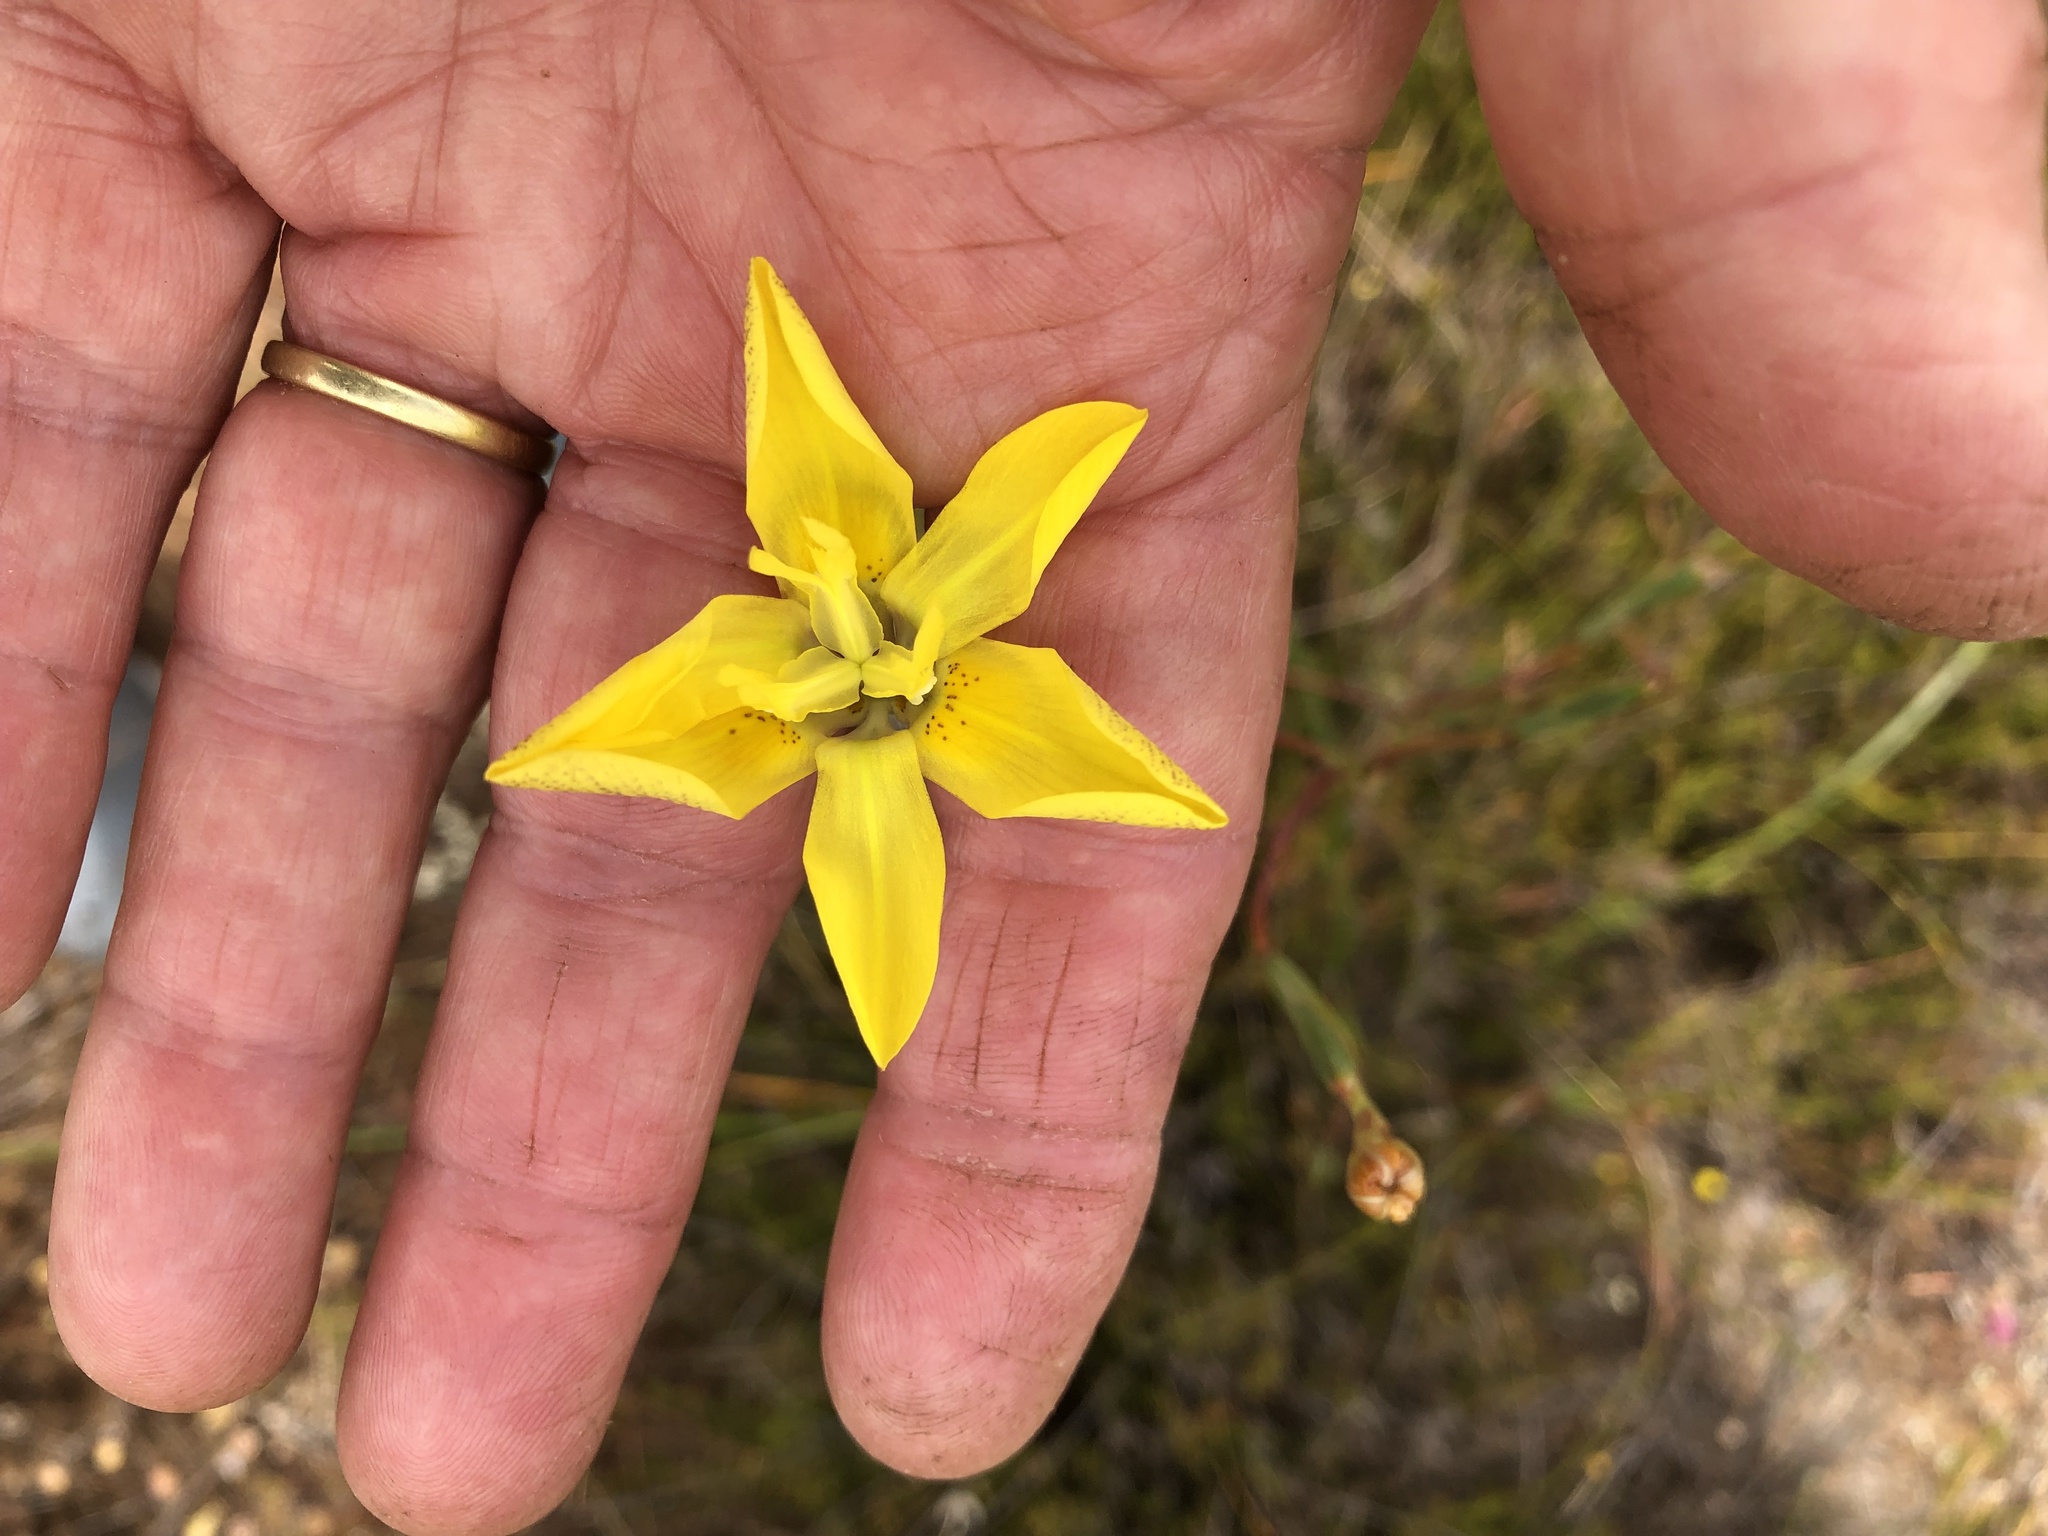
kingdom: Plantae
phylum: Tracheophyta
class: Liliopsida
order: Asparagales
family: Iridaceae
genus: Moraea
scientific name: Moraea bituminosa
